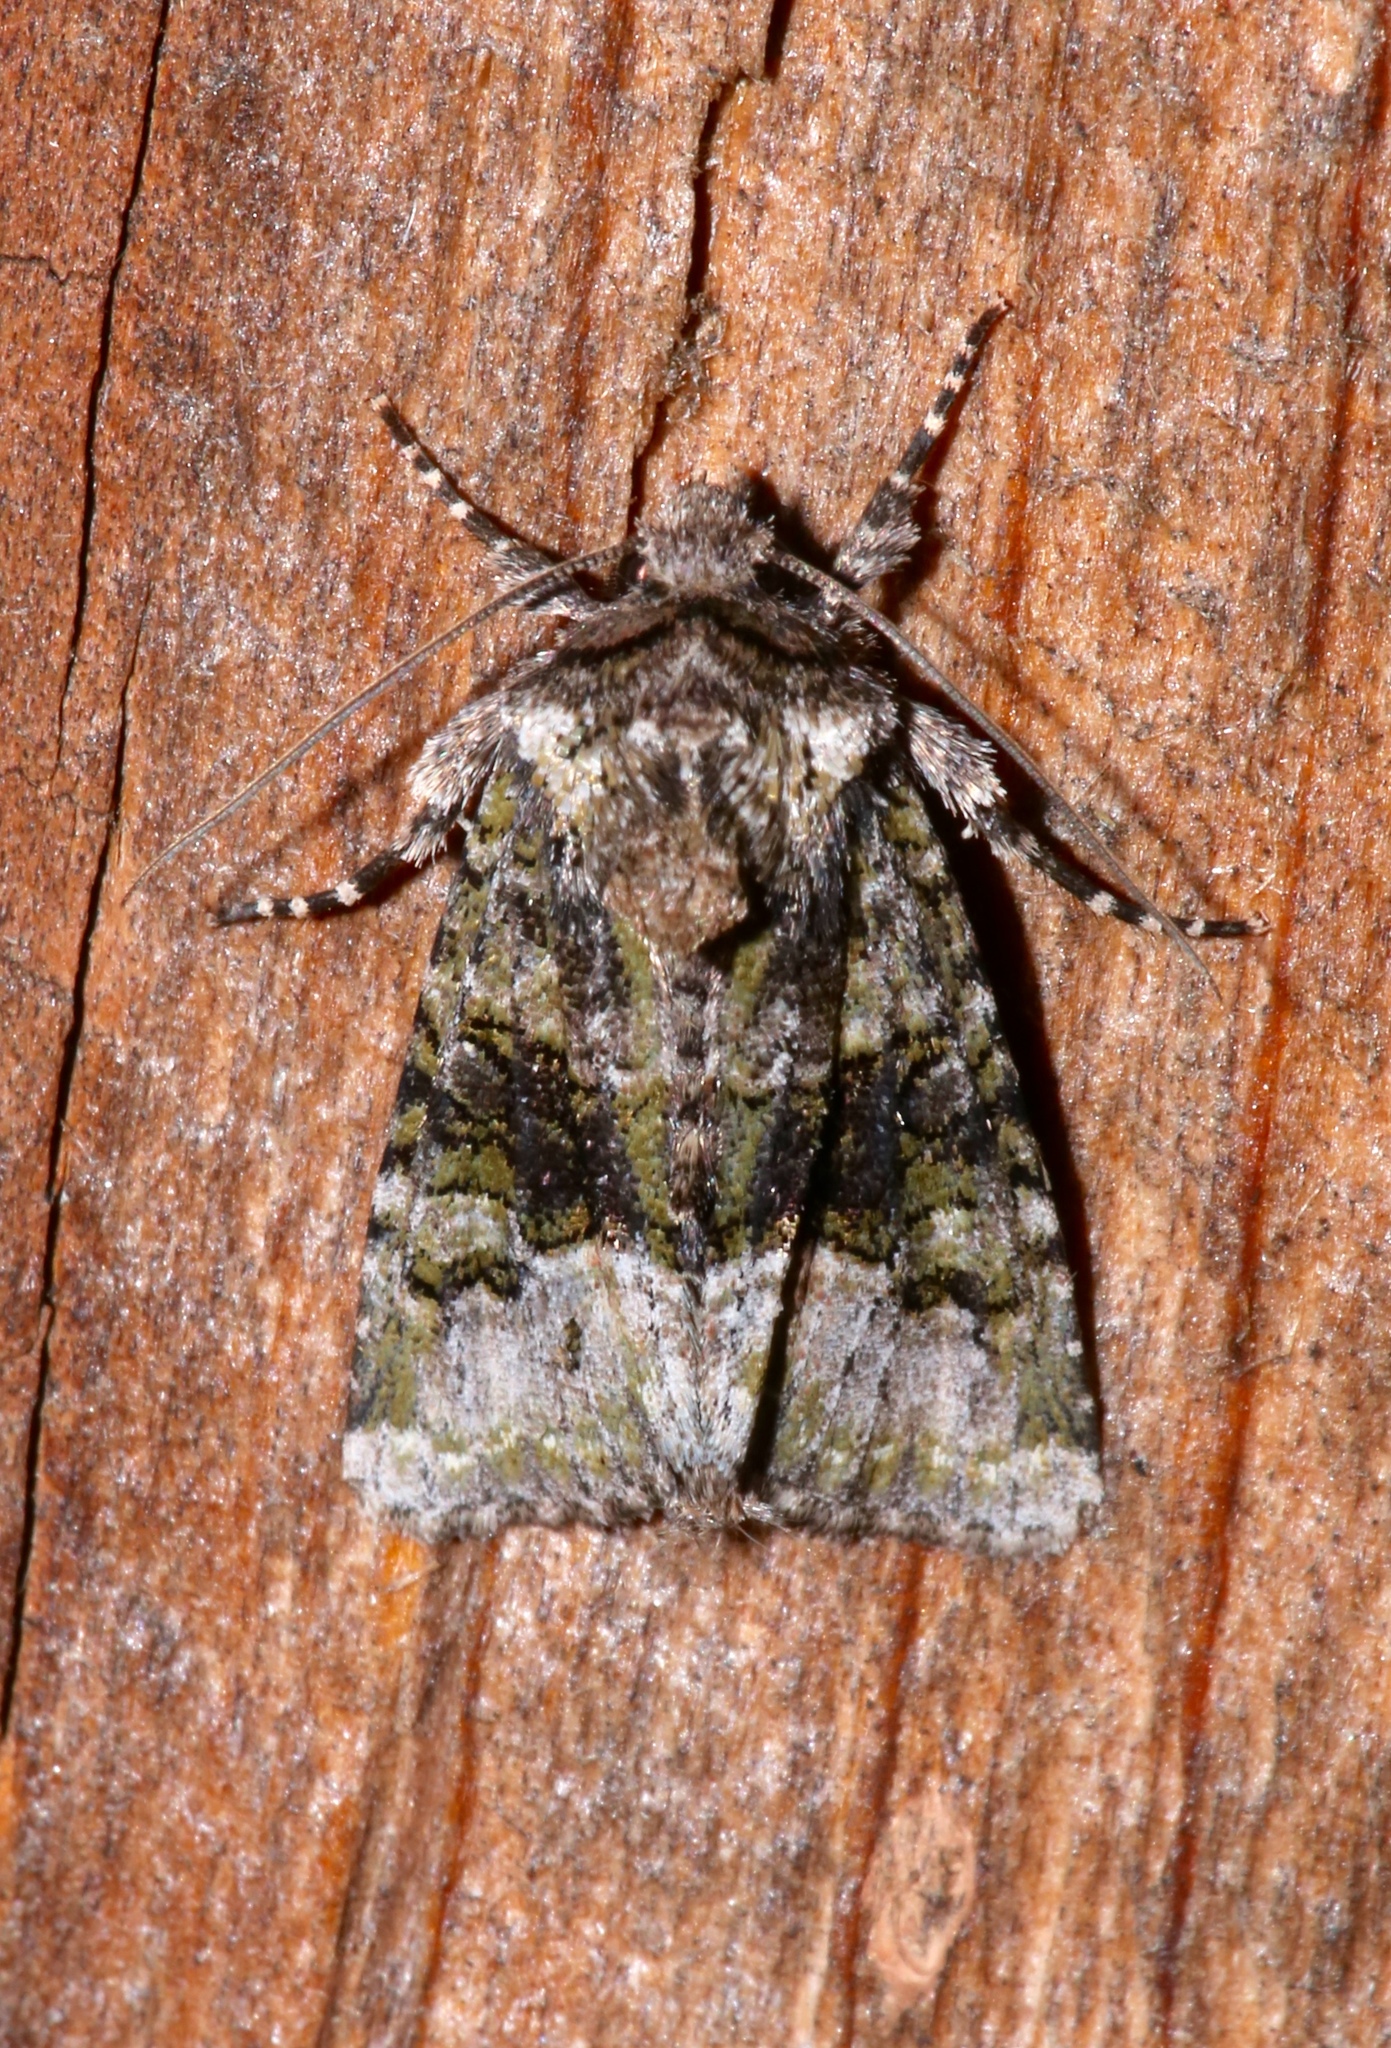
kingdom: Animalia
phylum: Arthropoda
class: Insecta
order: Lepidoptera
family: Noctuidae
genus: Lacinipolia
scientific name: Lacinipolia olivacea
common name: Olive arches moth
